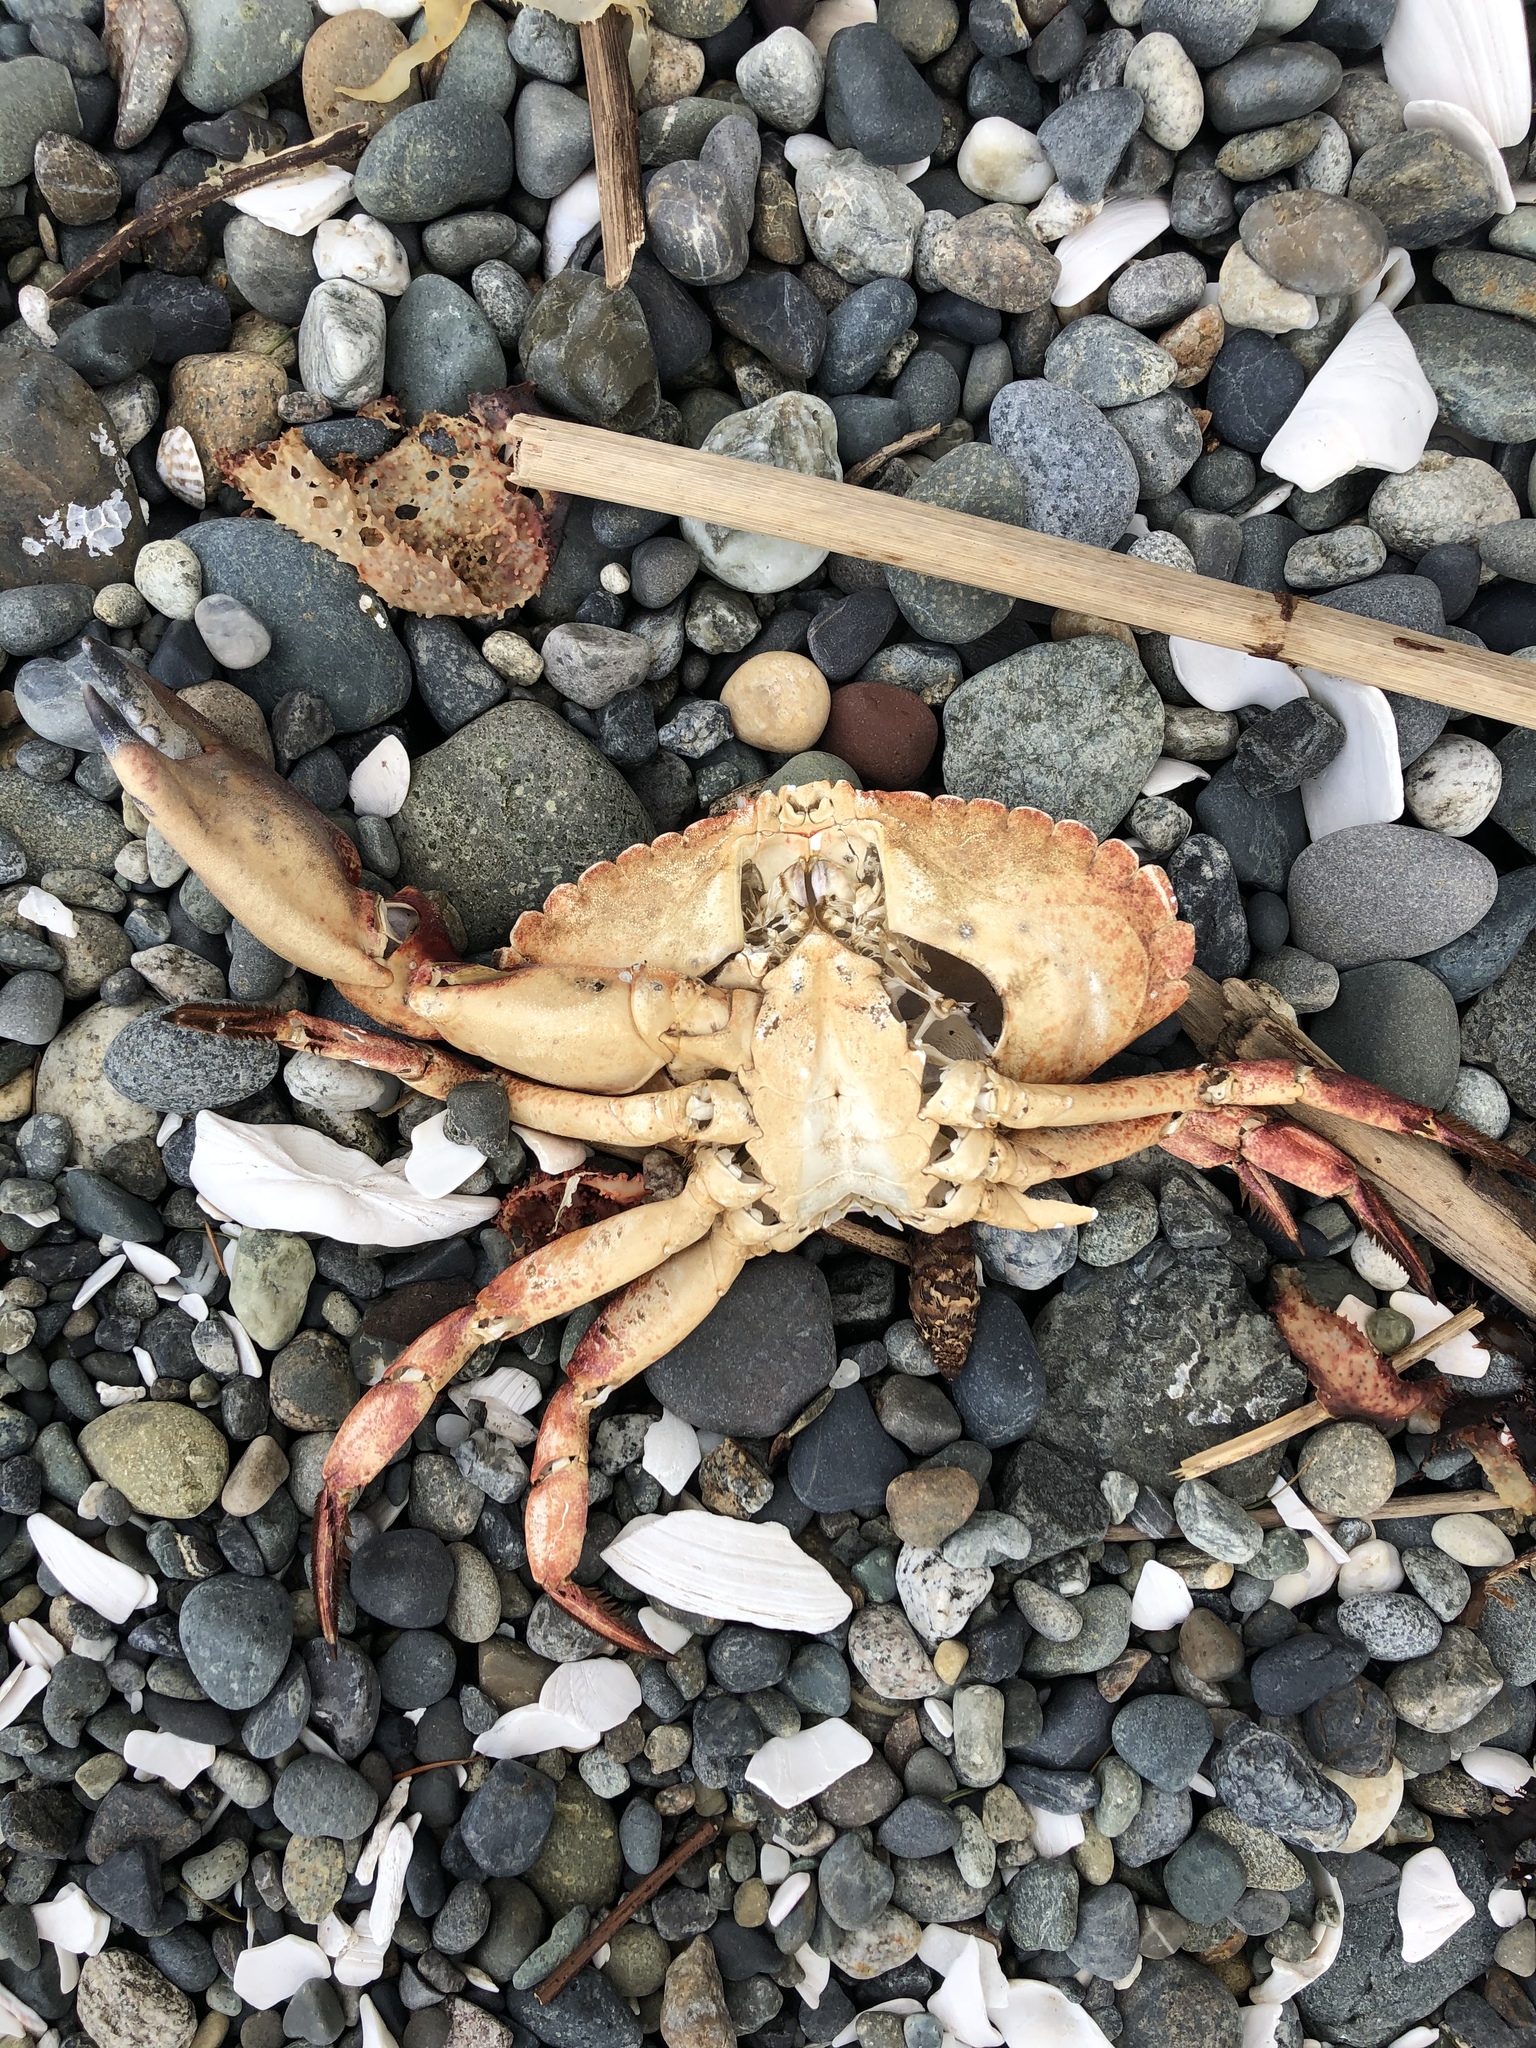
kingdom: Animalia
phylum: Arthropoda
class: Malacostraca
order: Decapoda
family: Cancridae
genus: Cancer
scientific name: Cancer productus
